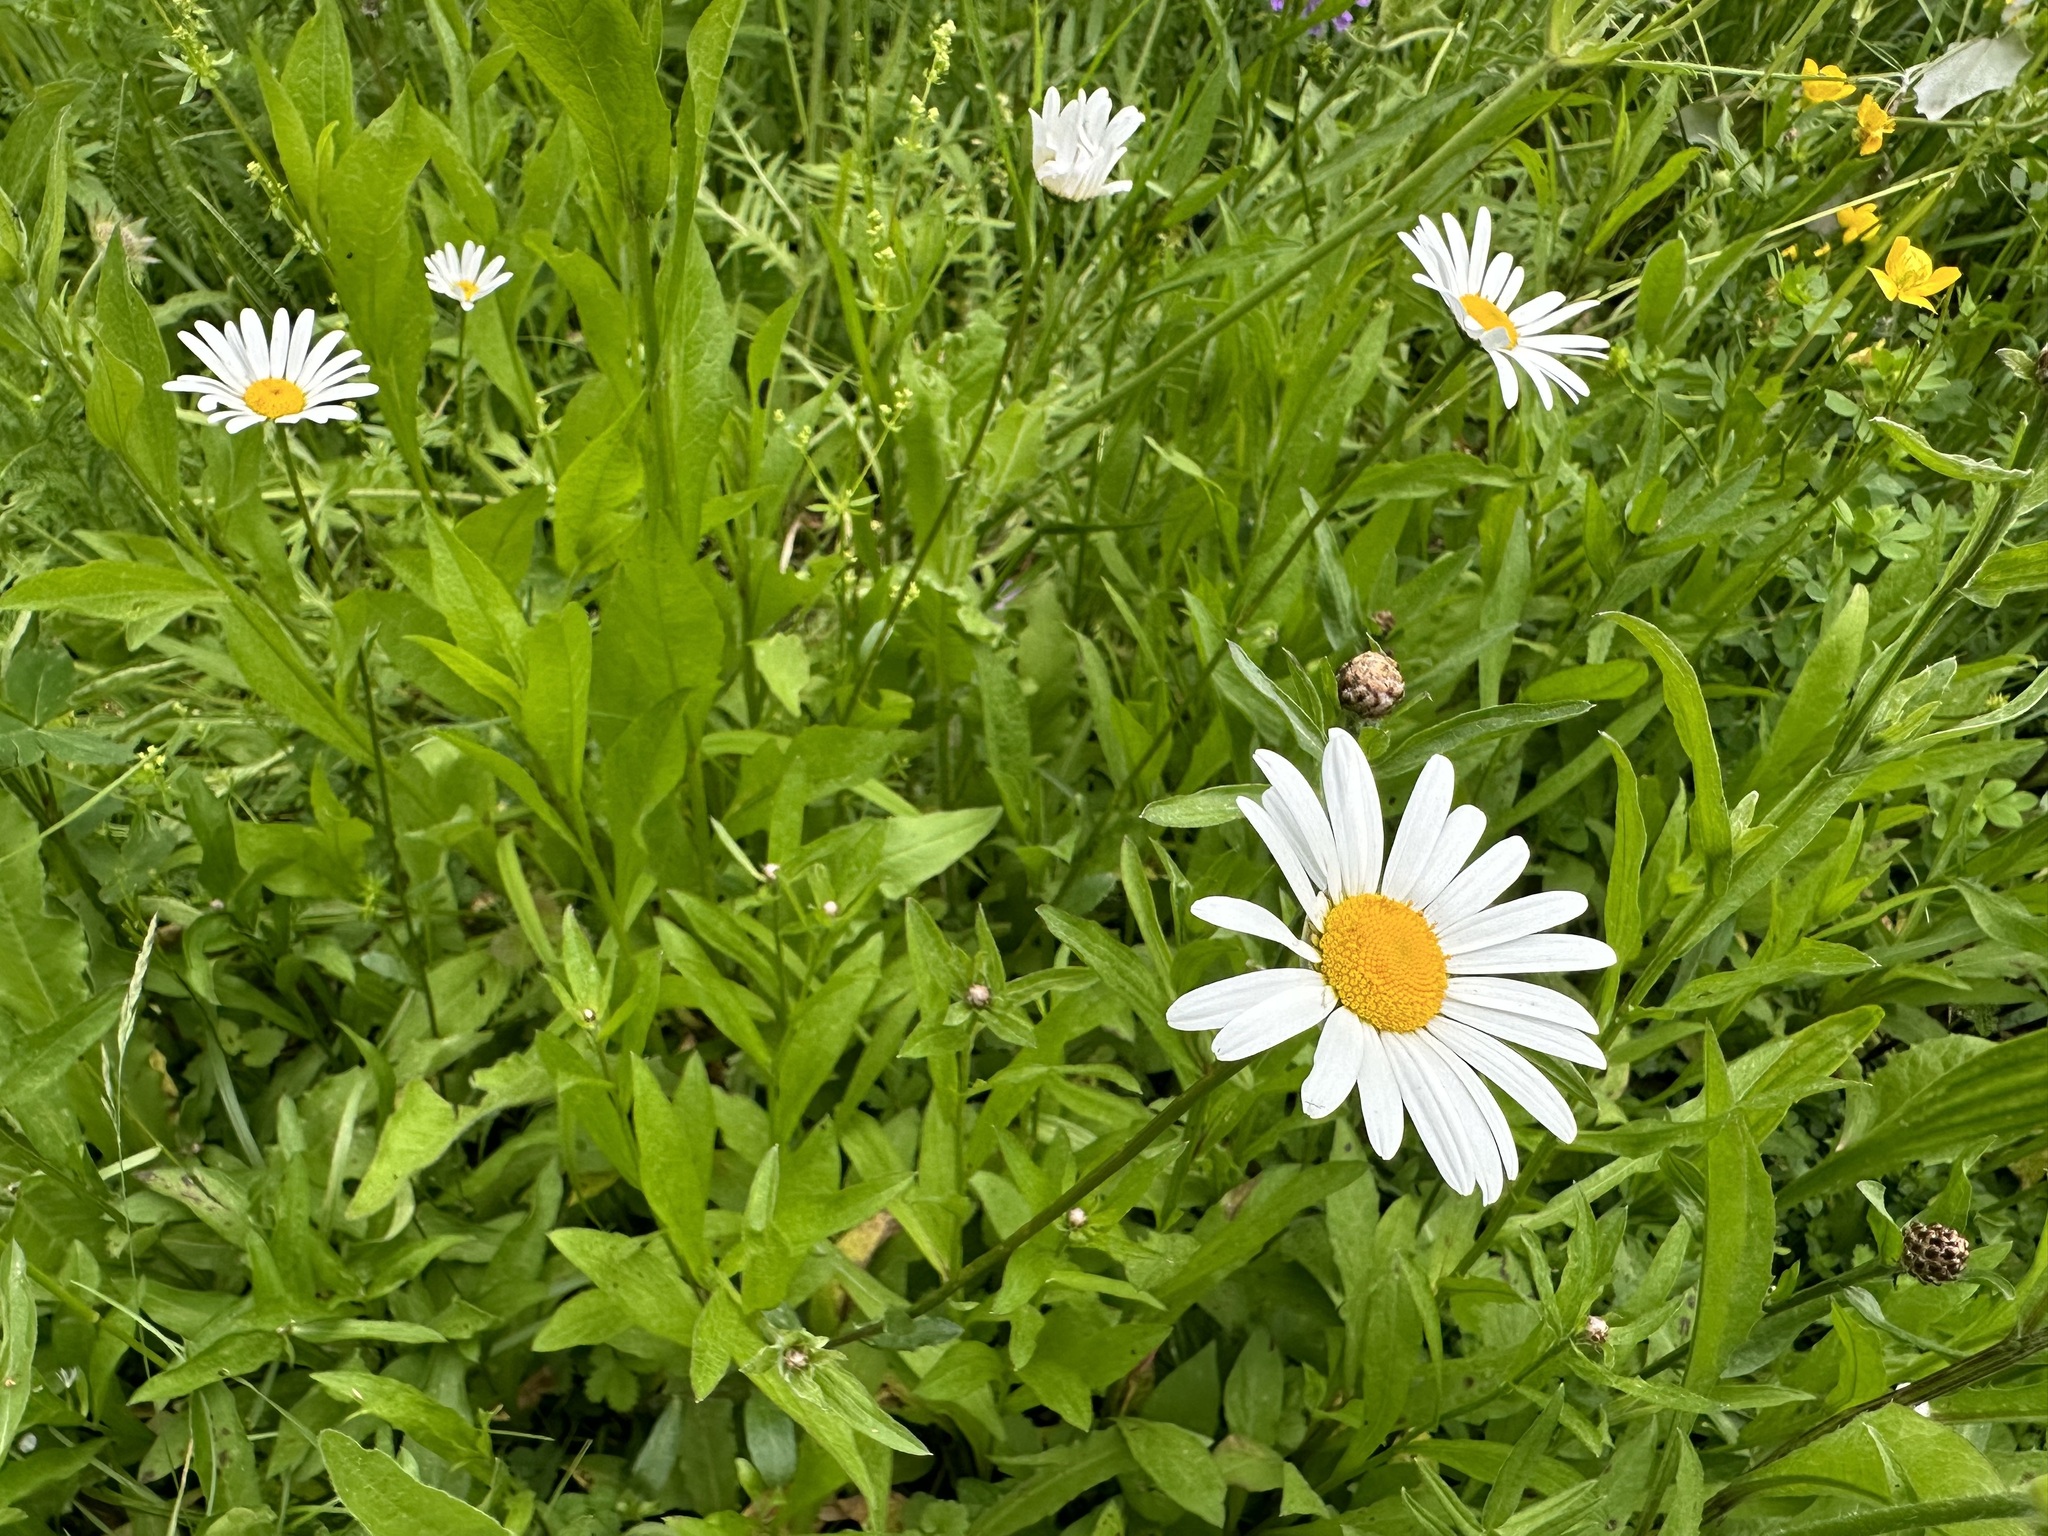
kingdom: Plantae
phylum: Tracheophyta
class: Magnoliopsida
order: Asterales
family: Asteraceae
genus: Leucanthemum
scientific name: Leucanthemum vulgare
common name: Oxeye daisy
